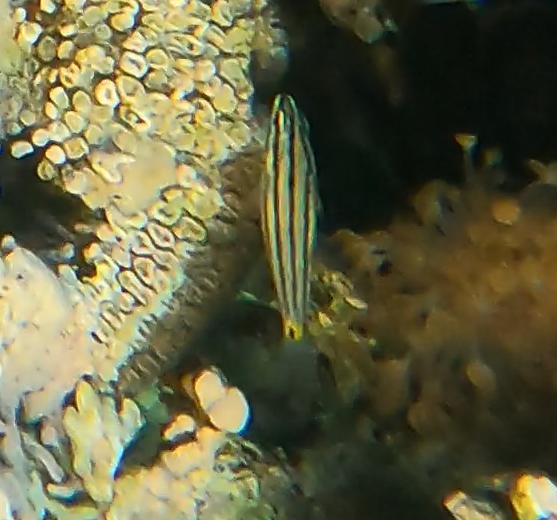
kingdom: Animalia
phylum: Chordata
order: Perciformes
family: Apogonidae
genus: Cheilodipterus
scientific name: Cheilodipterus quinquelineatus
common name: Five-lined cardinalfish
